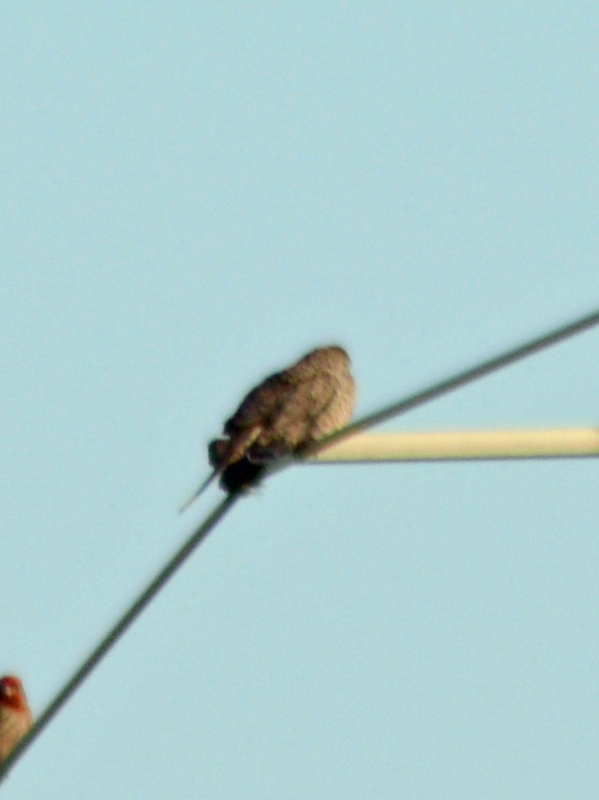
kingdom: Animalia
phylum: Chordata
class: Aves
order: Columbiformes
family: Columbidae
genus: Columbina
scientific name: Columbina inca
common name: Inca dove
